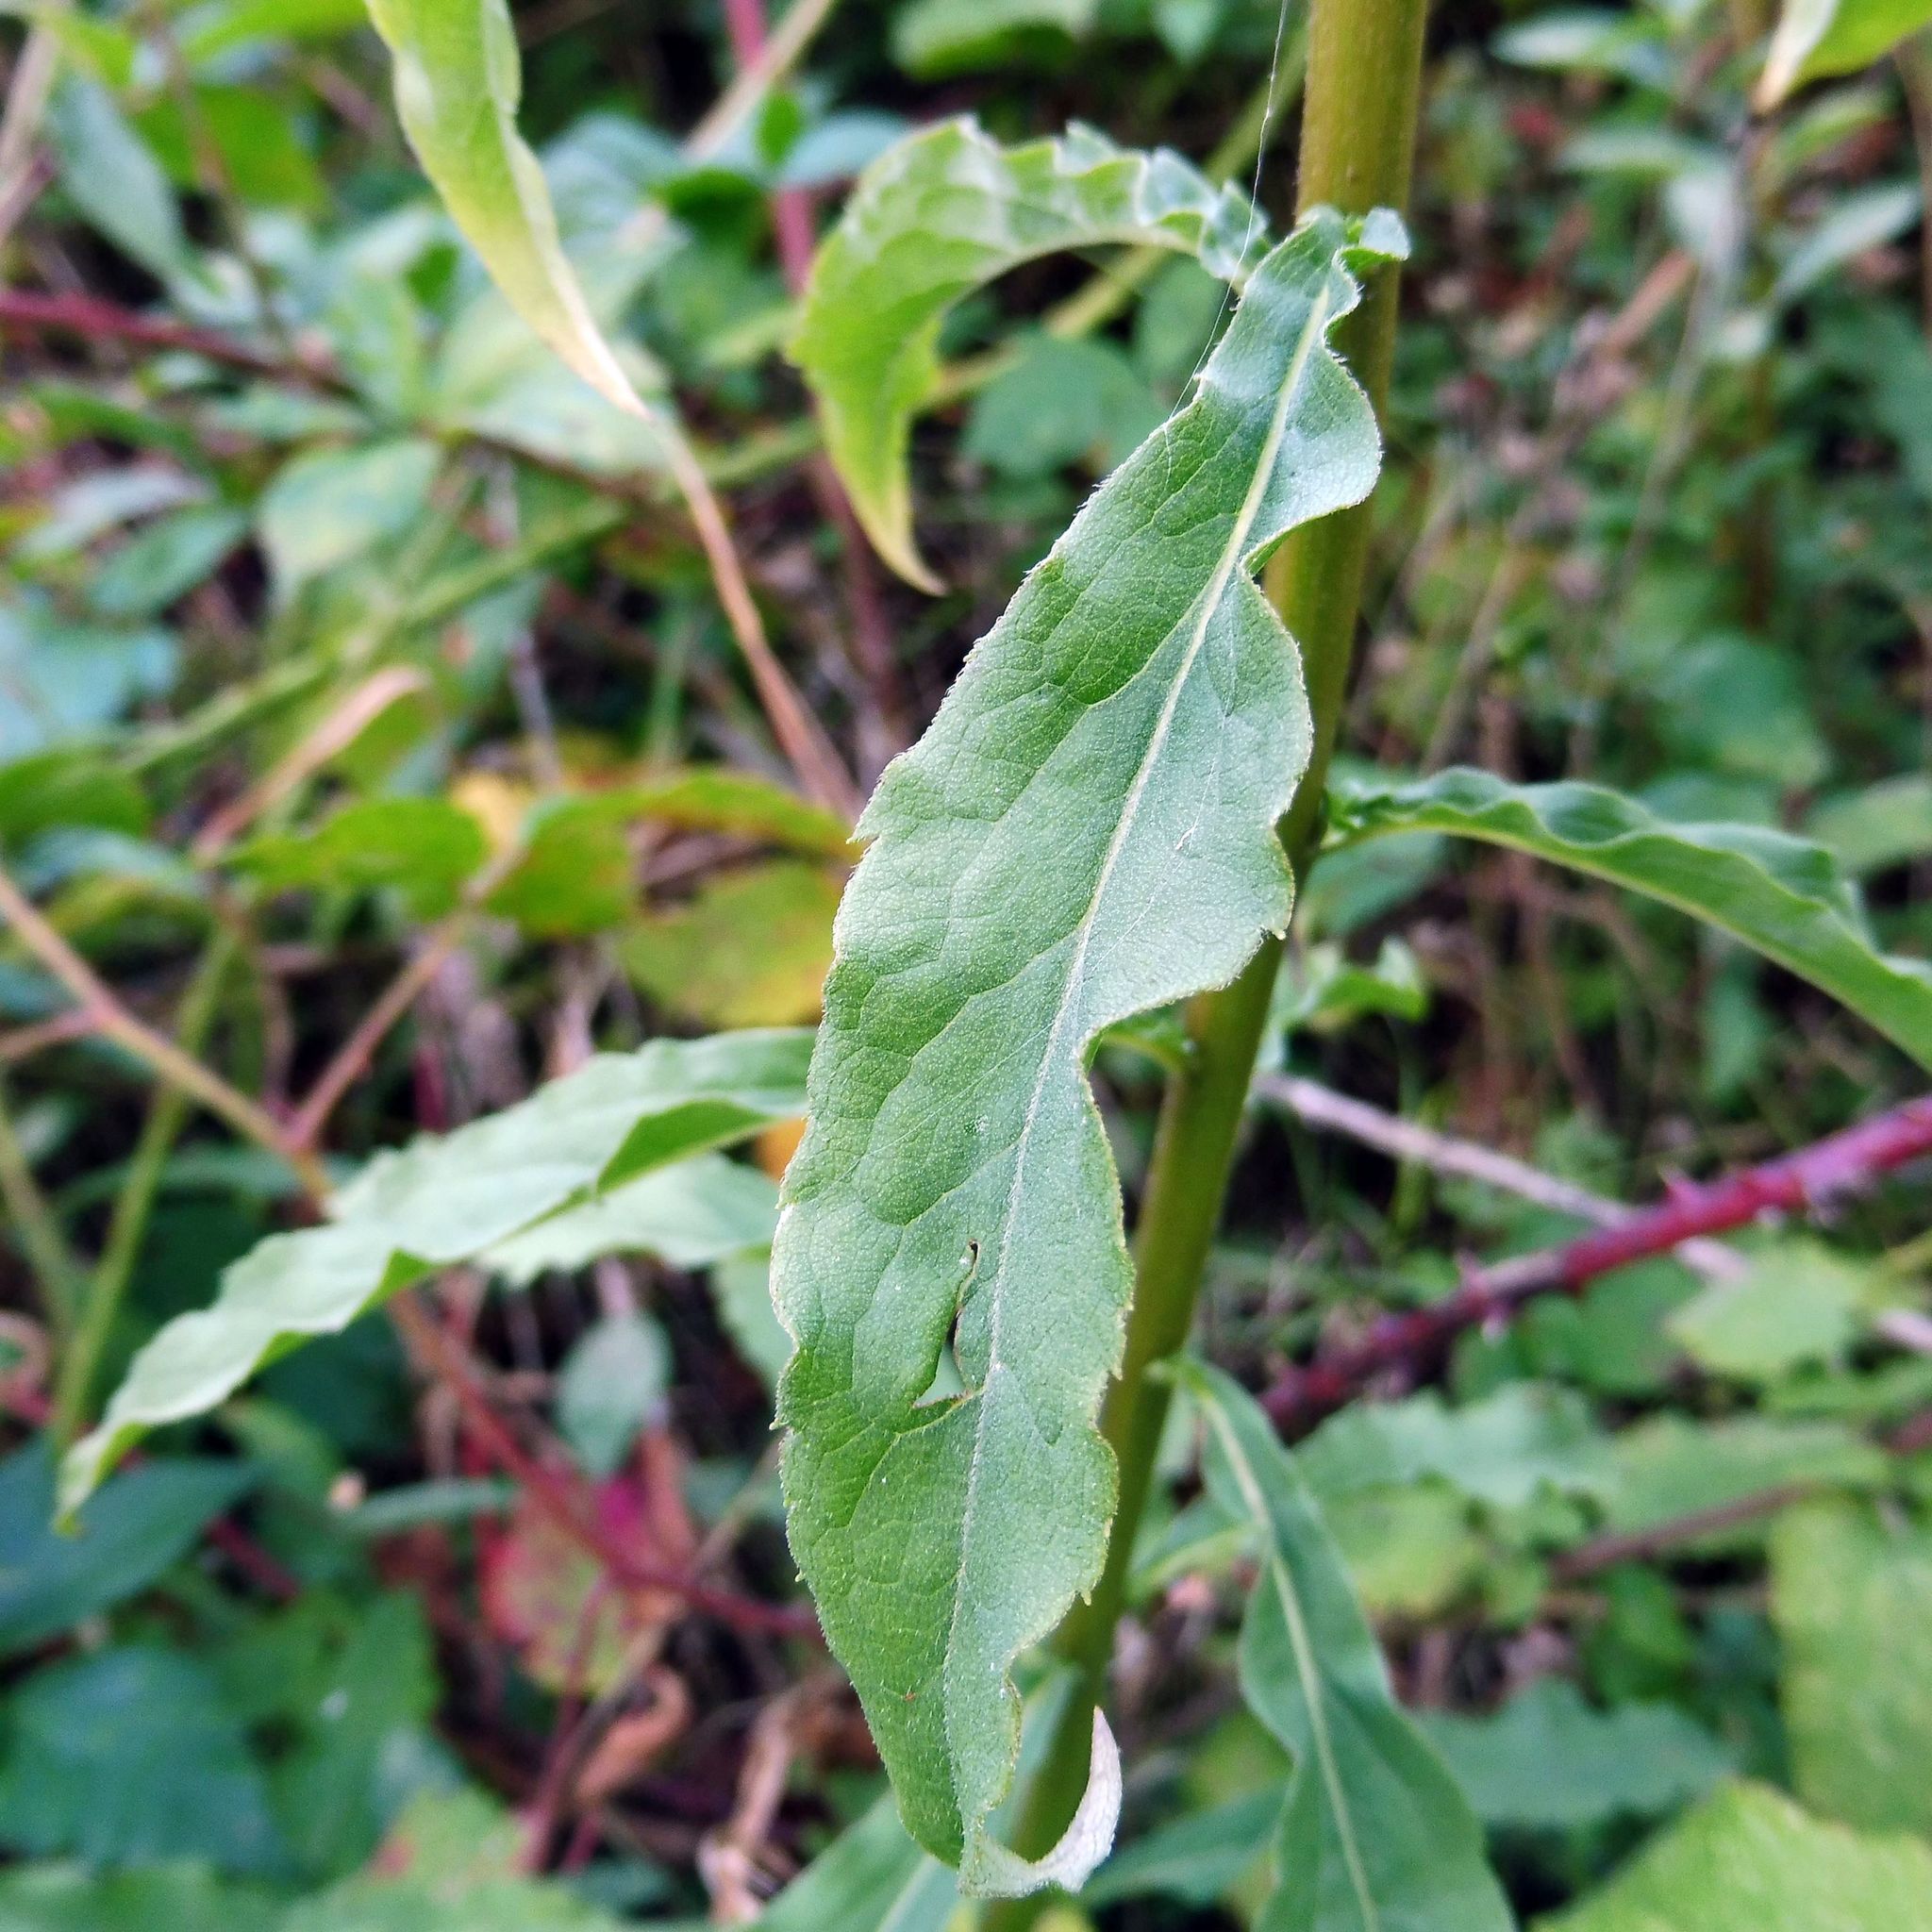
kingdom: Plantae
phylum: Tracheophyta
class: Magnoliopsida
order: Asterales
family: Asteraceae
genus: Solidago
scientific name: Solidago virgaurea
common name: Goldenrod
